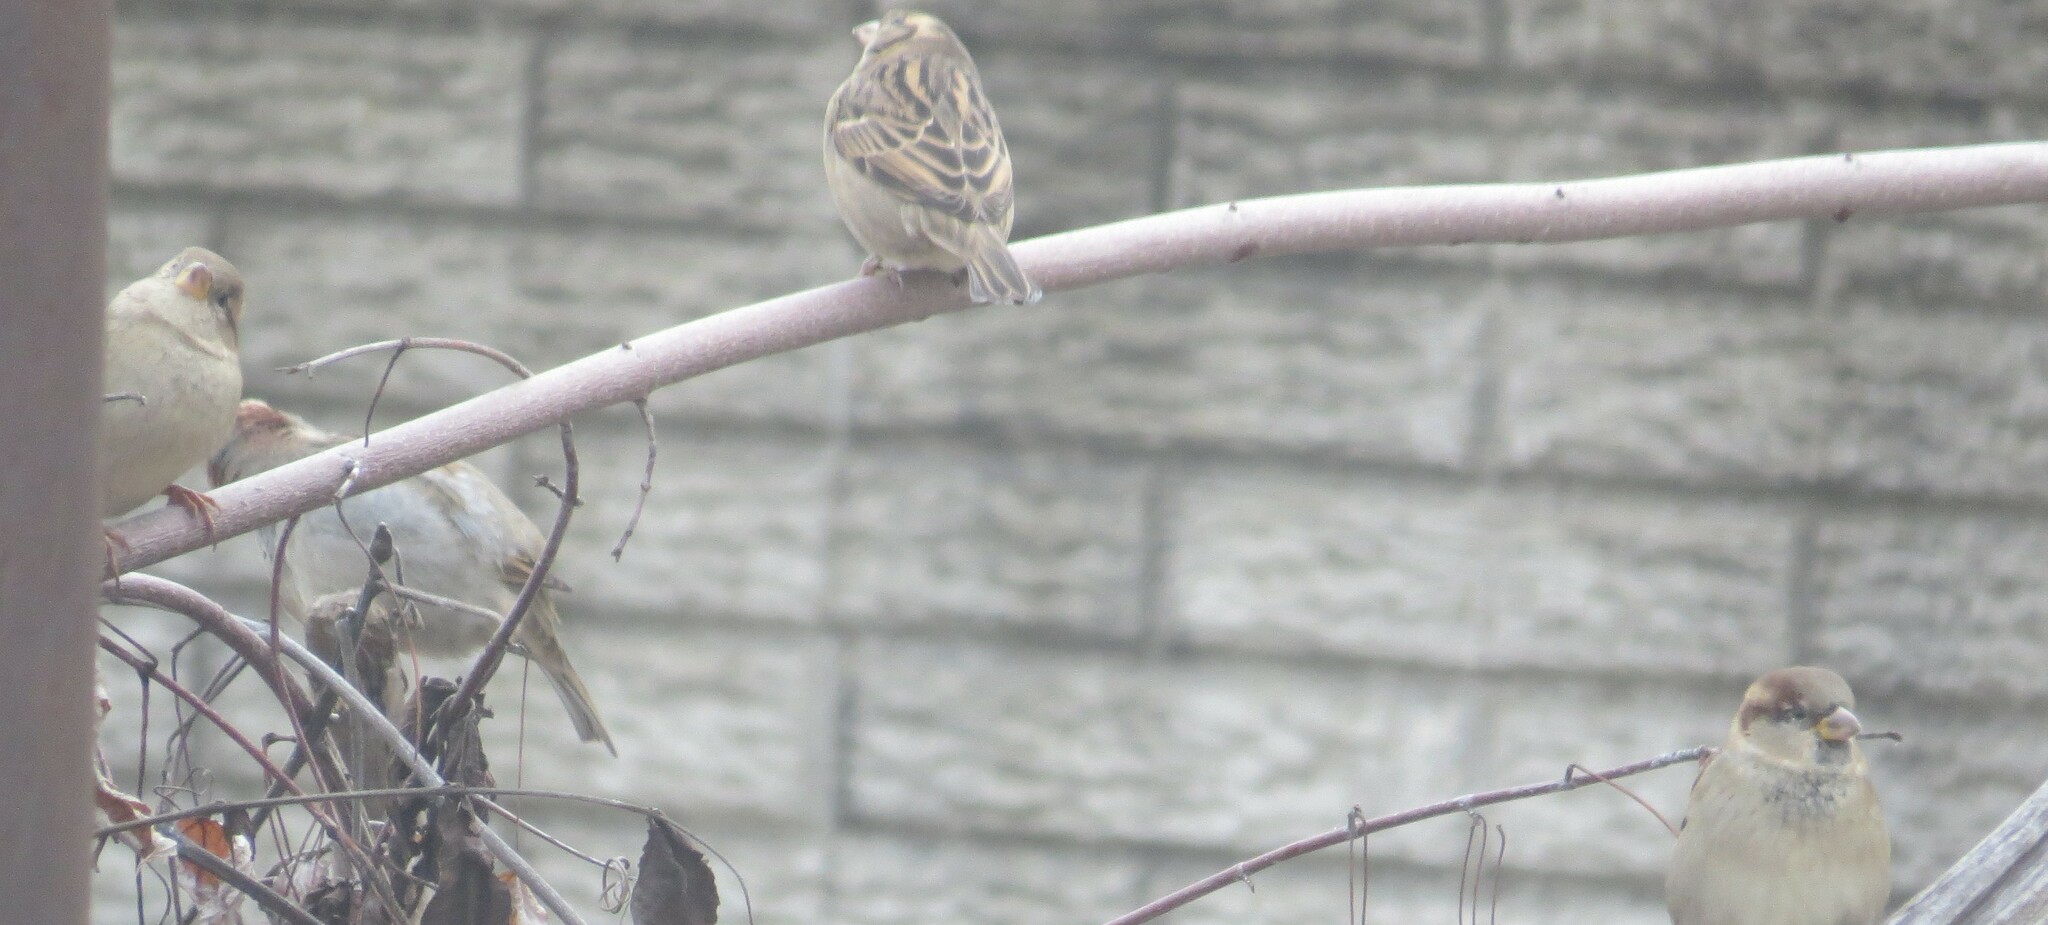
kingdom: Animalia
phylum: Chordata
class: Aves
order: Passeriformes
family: Passeridae
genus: Passer
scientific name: Passer domesticus
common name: House sparrow
